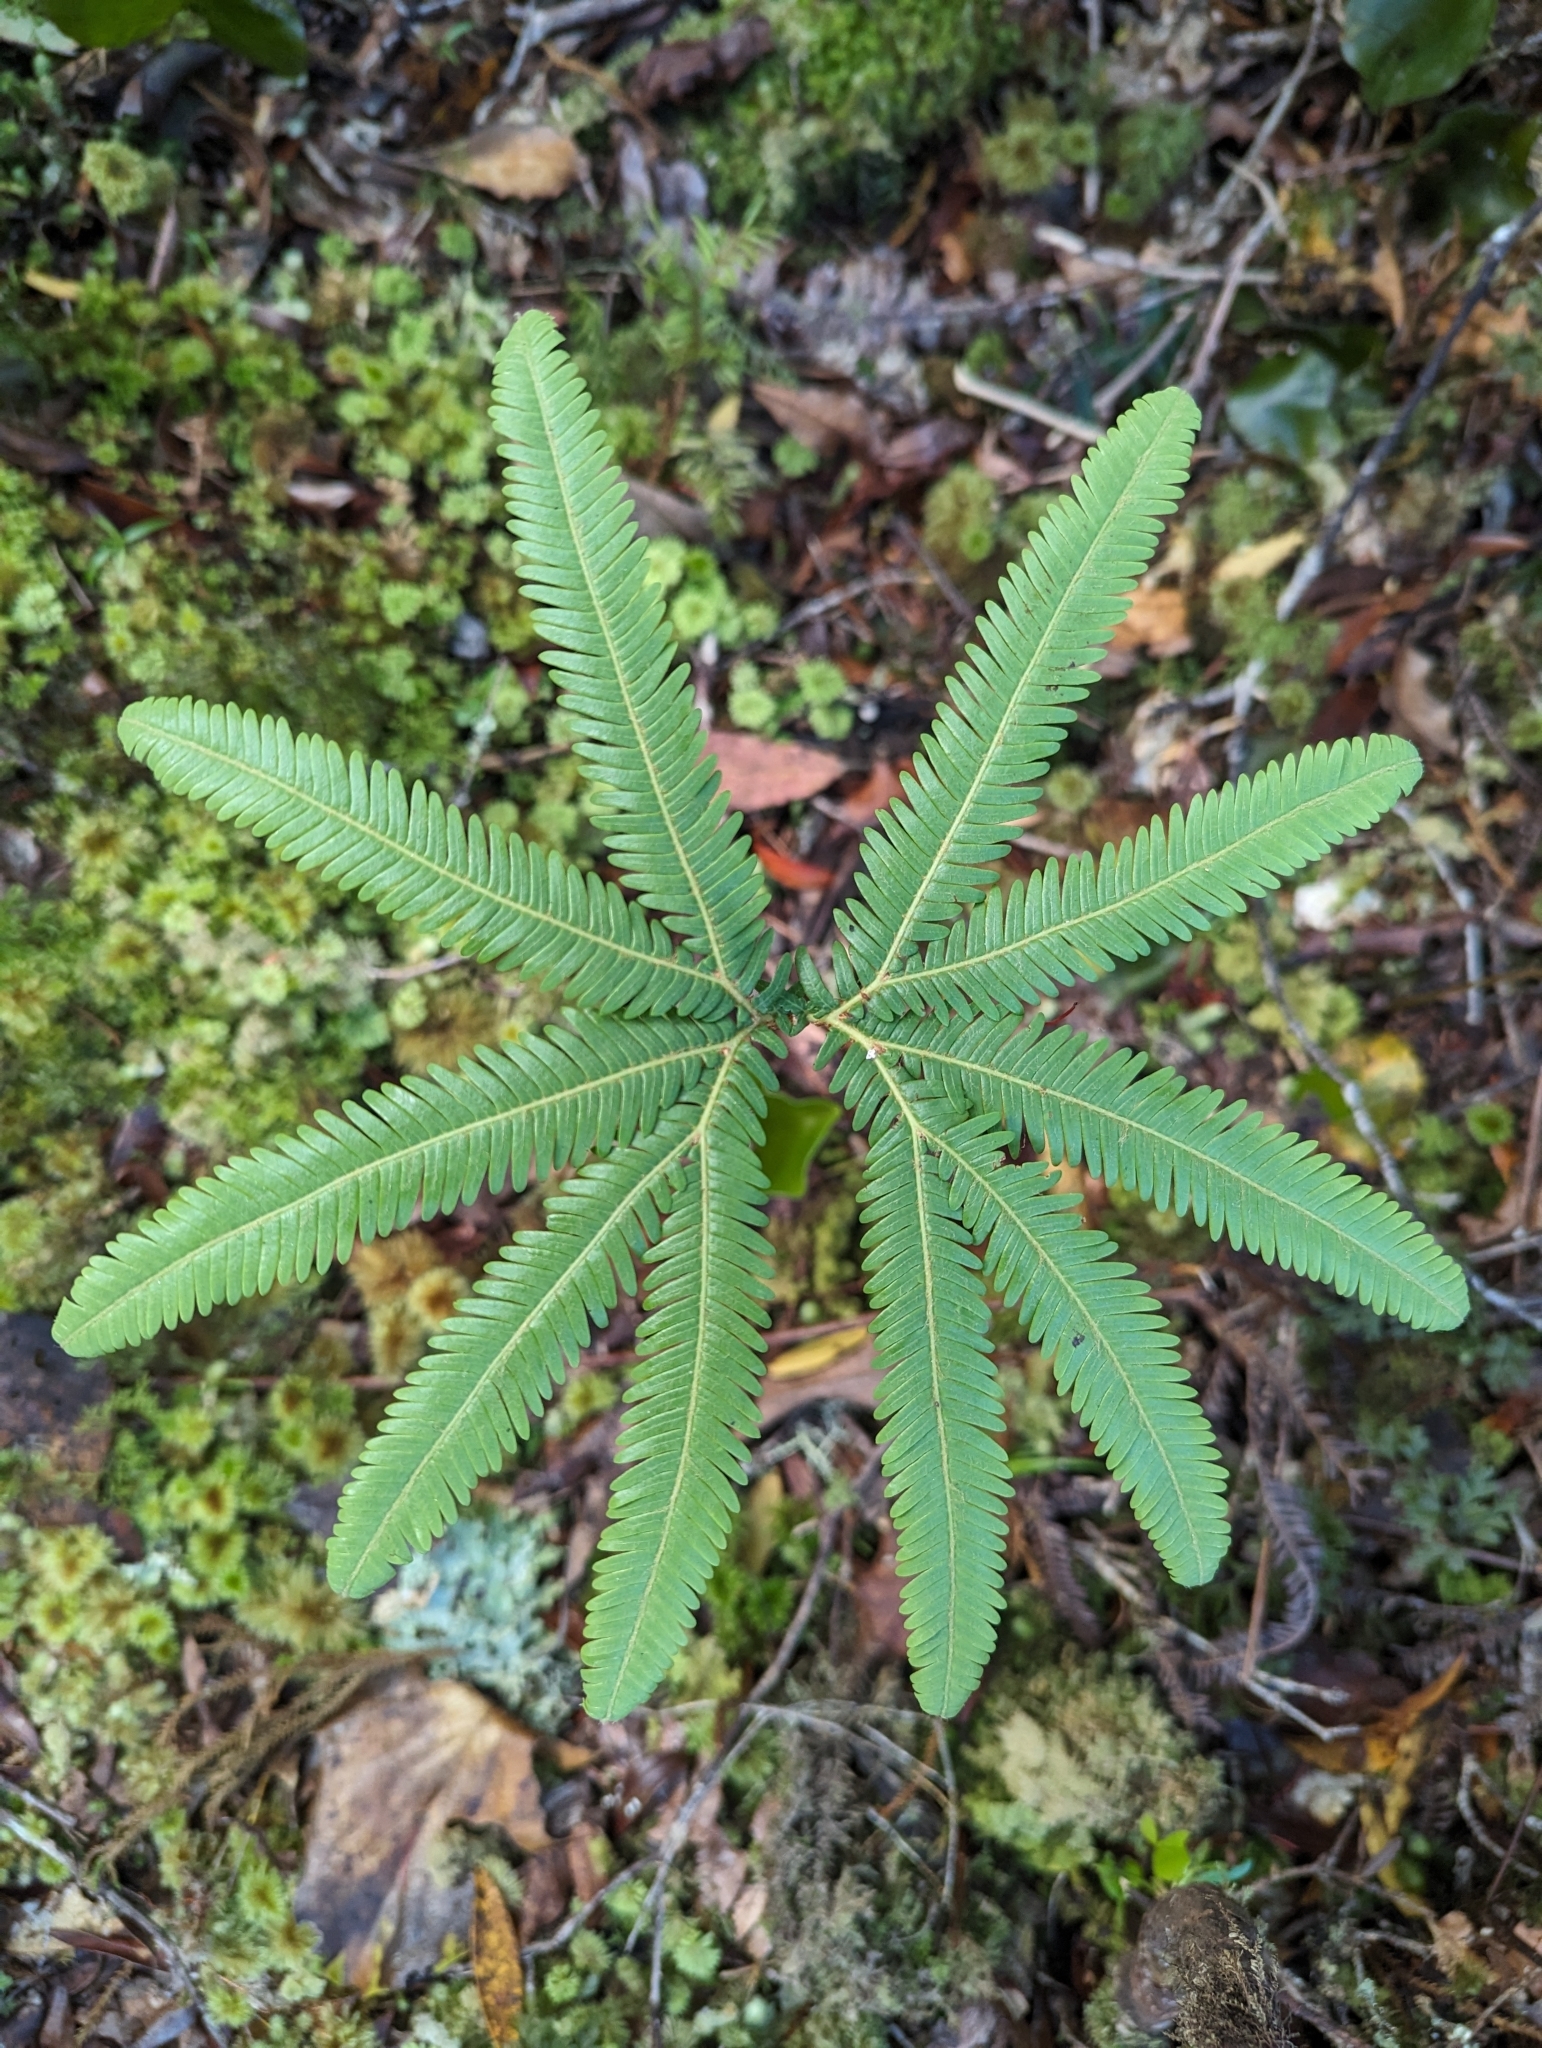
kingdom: Plantae
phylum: Tracheophyta
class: Polypodiopsida
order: Gleicheniales
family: Gleicheniaceae
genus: Sticherus
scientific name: Sticherus cunninghamii
